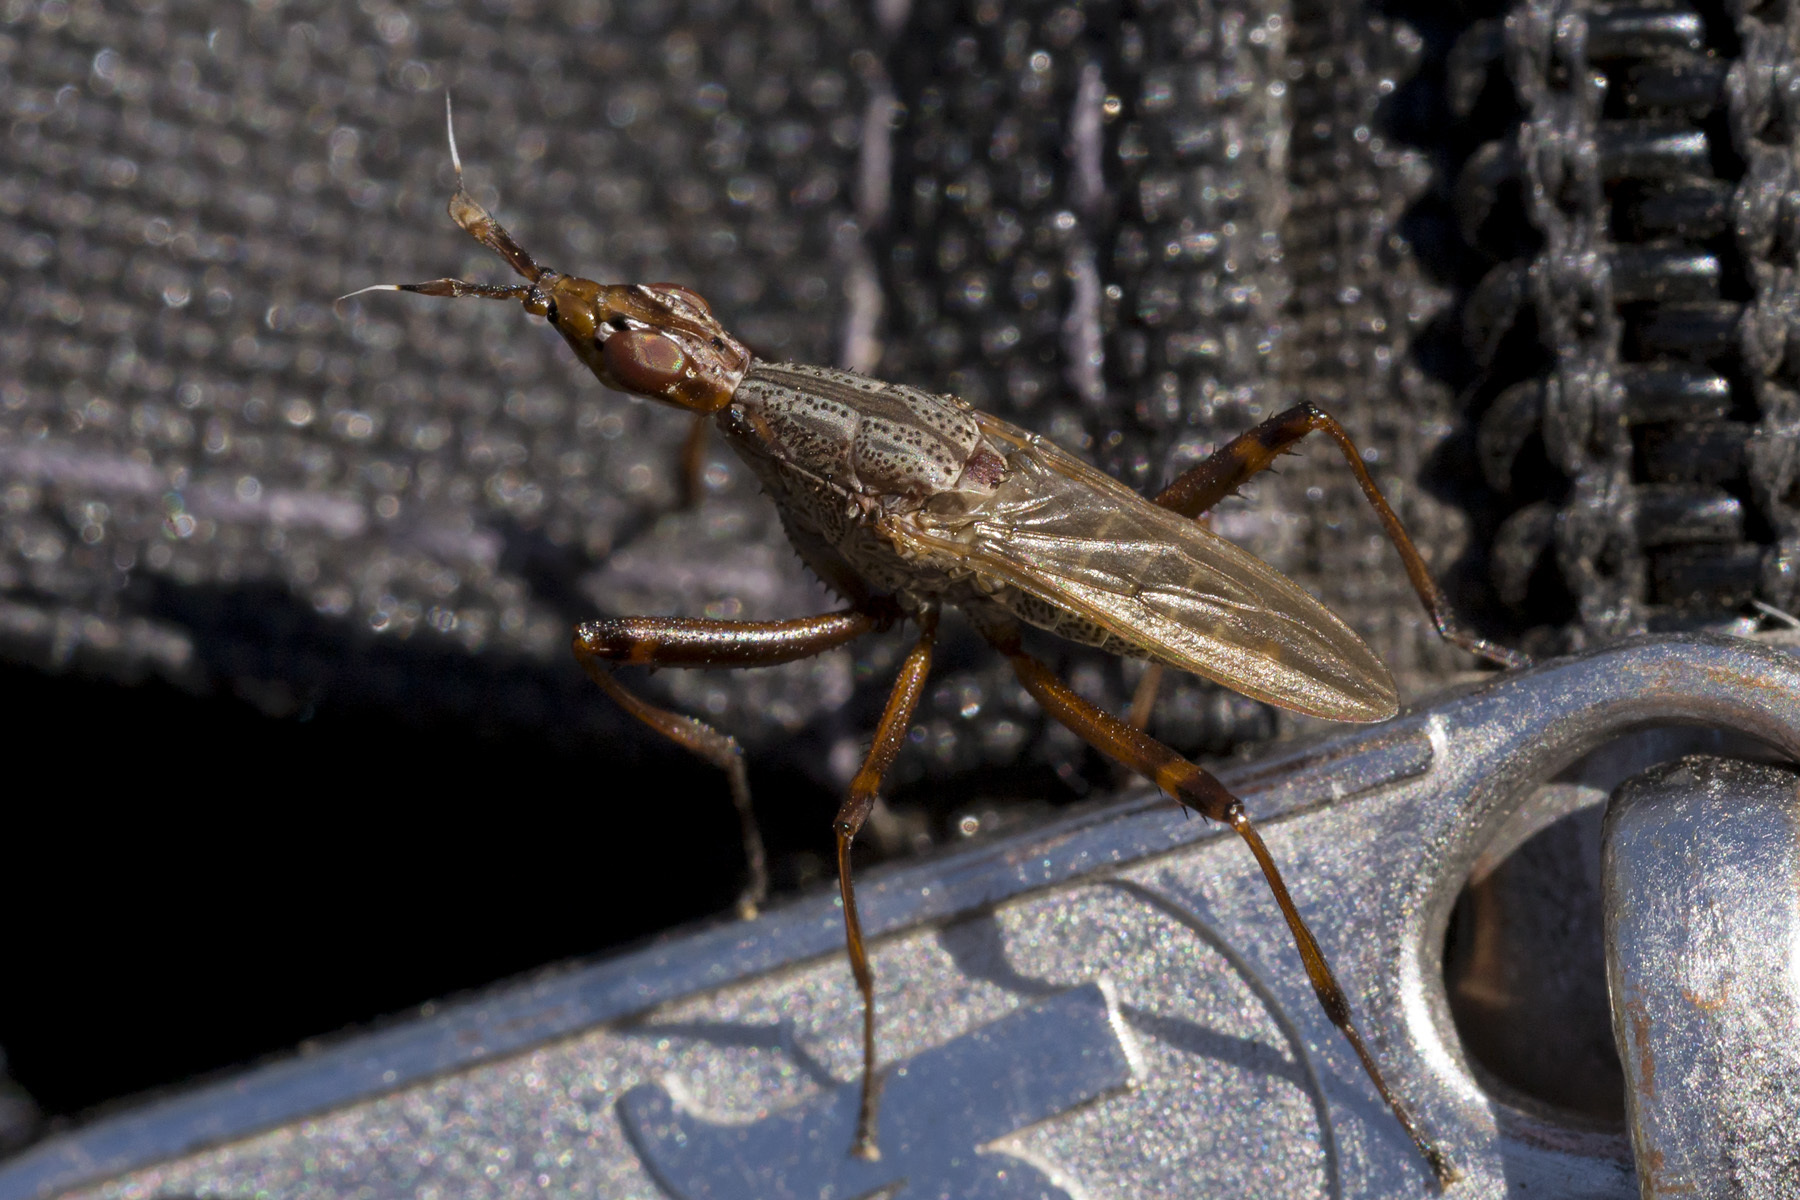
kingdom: Animalia
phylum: Arthropoda
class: Insecta
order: Diptera
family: Neriidae
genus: Odontoloxozus
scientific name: Odontoloxozus longicornis
